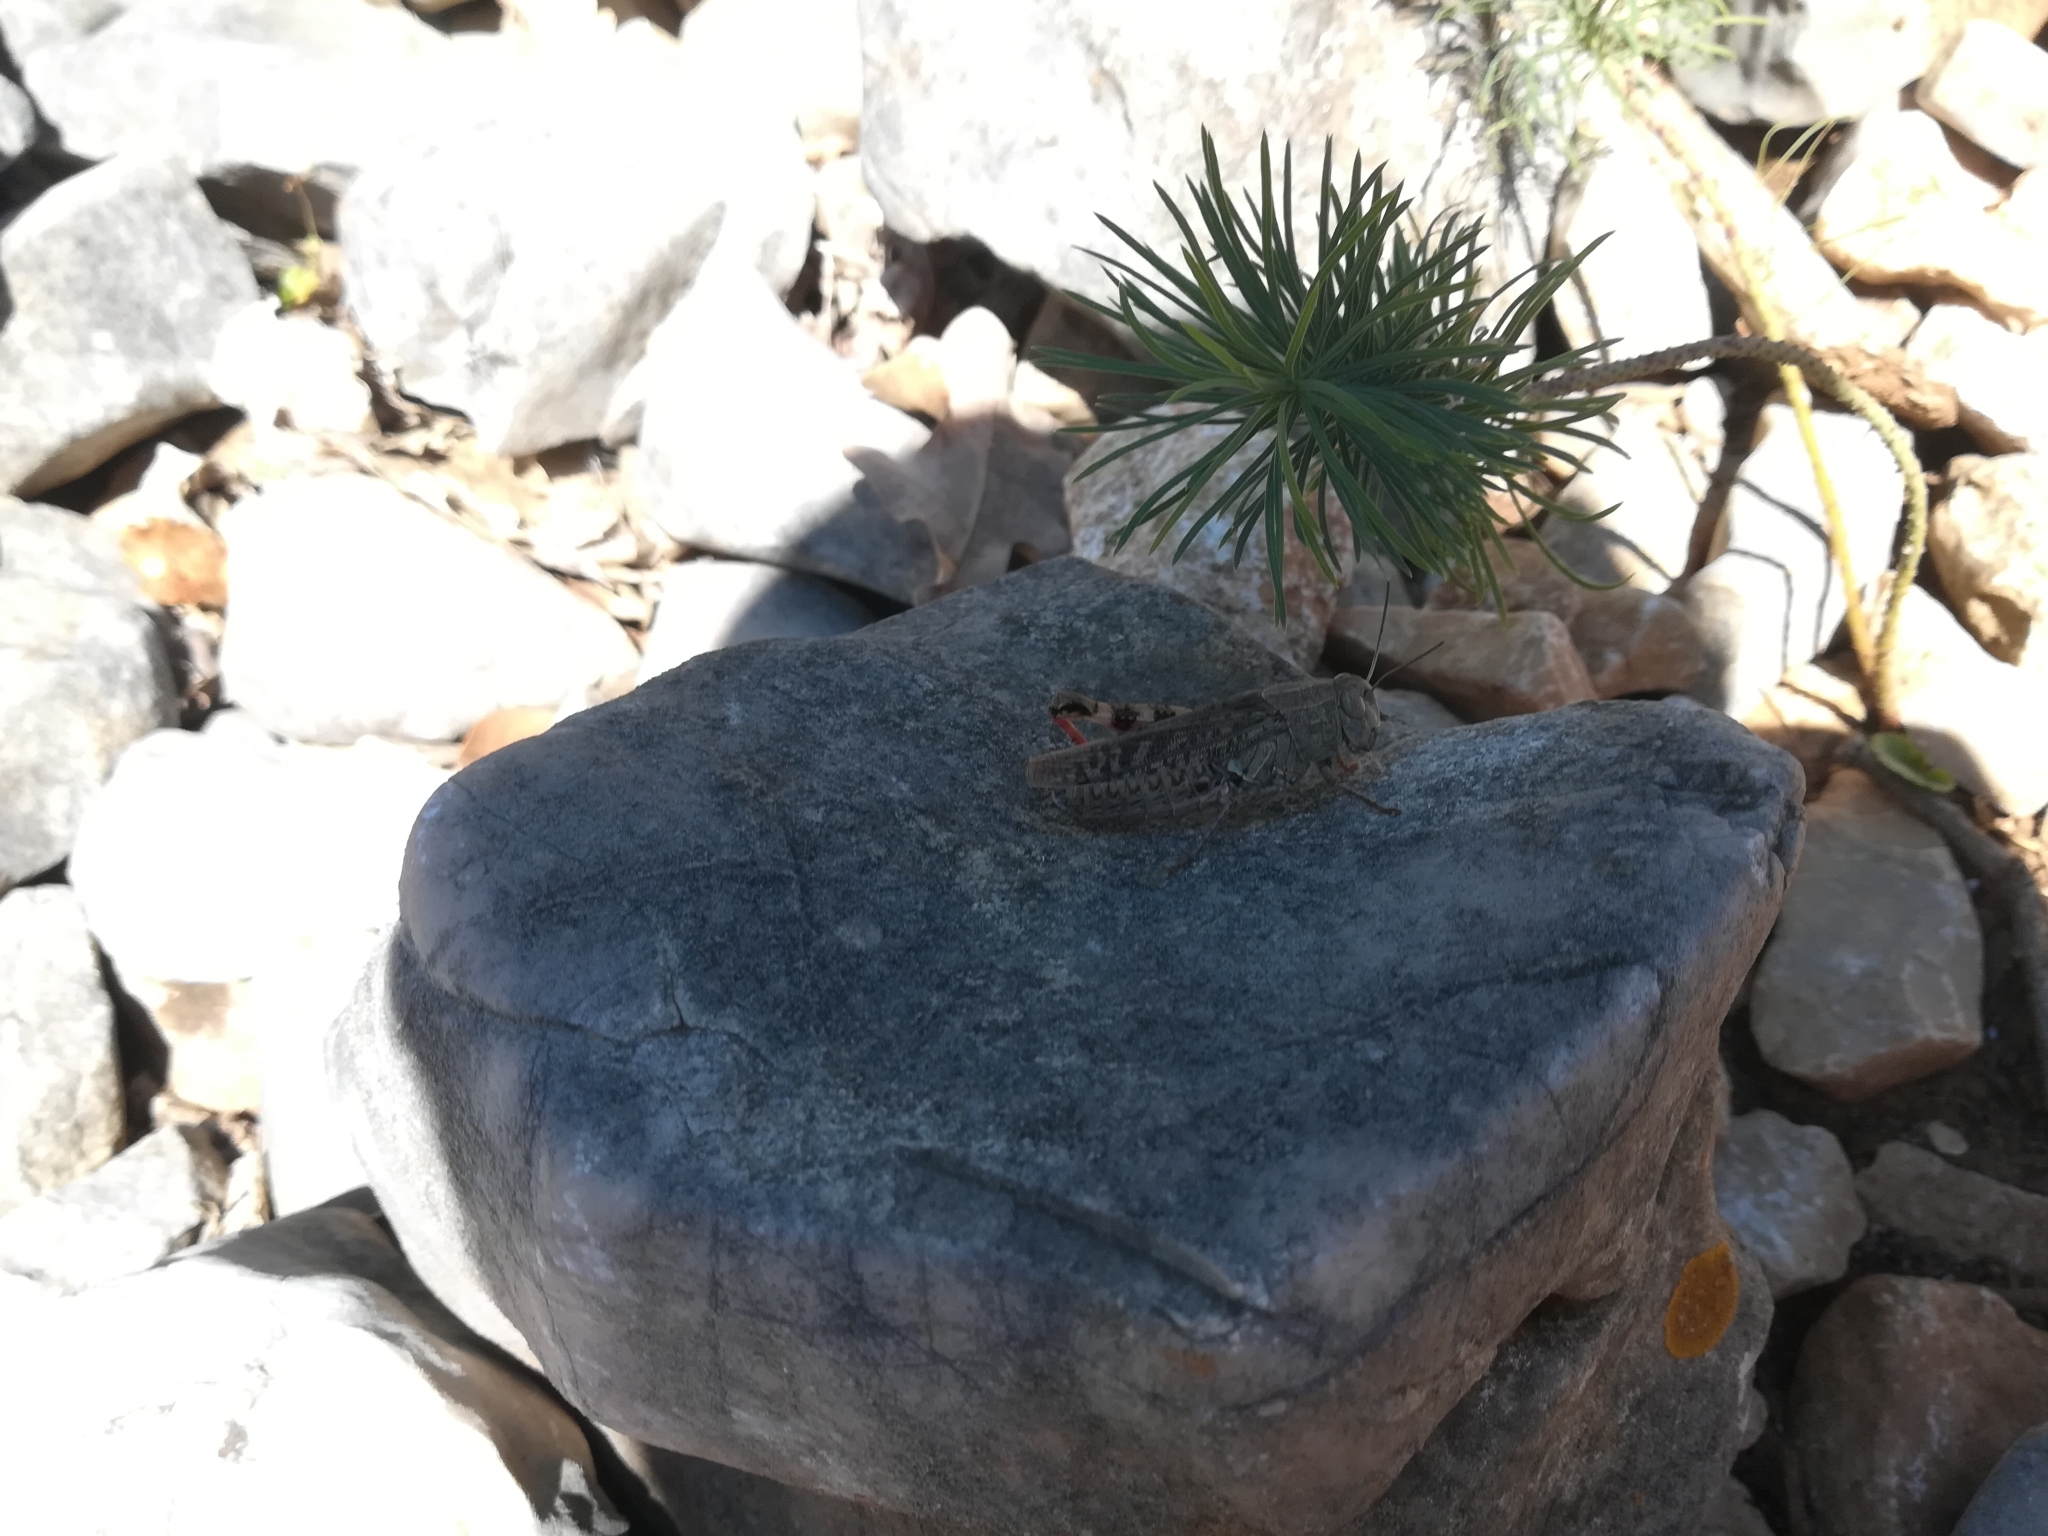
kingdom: Animalia
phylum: Arthropoda
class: Insecta
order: Orthoptera
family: Acrididae
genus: Calliptamus
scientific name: Calliptamus italicus
